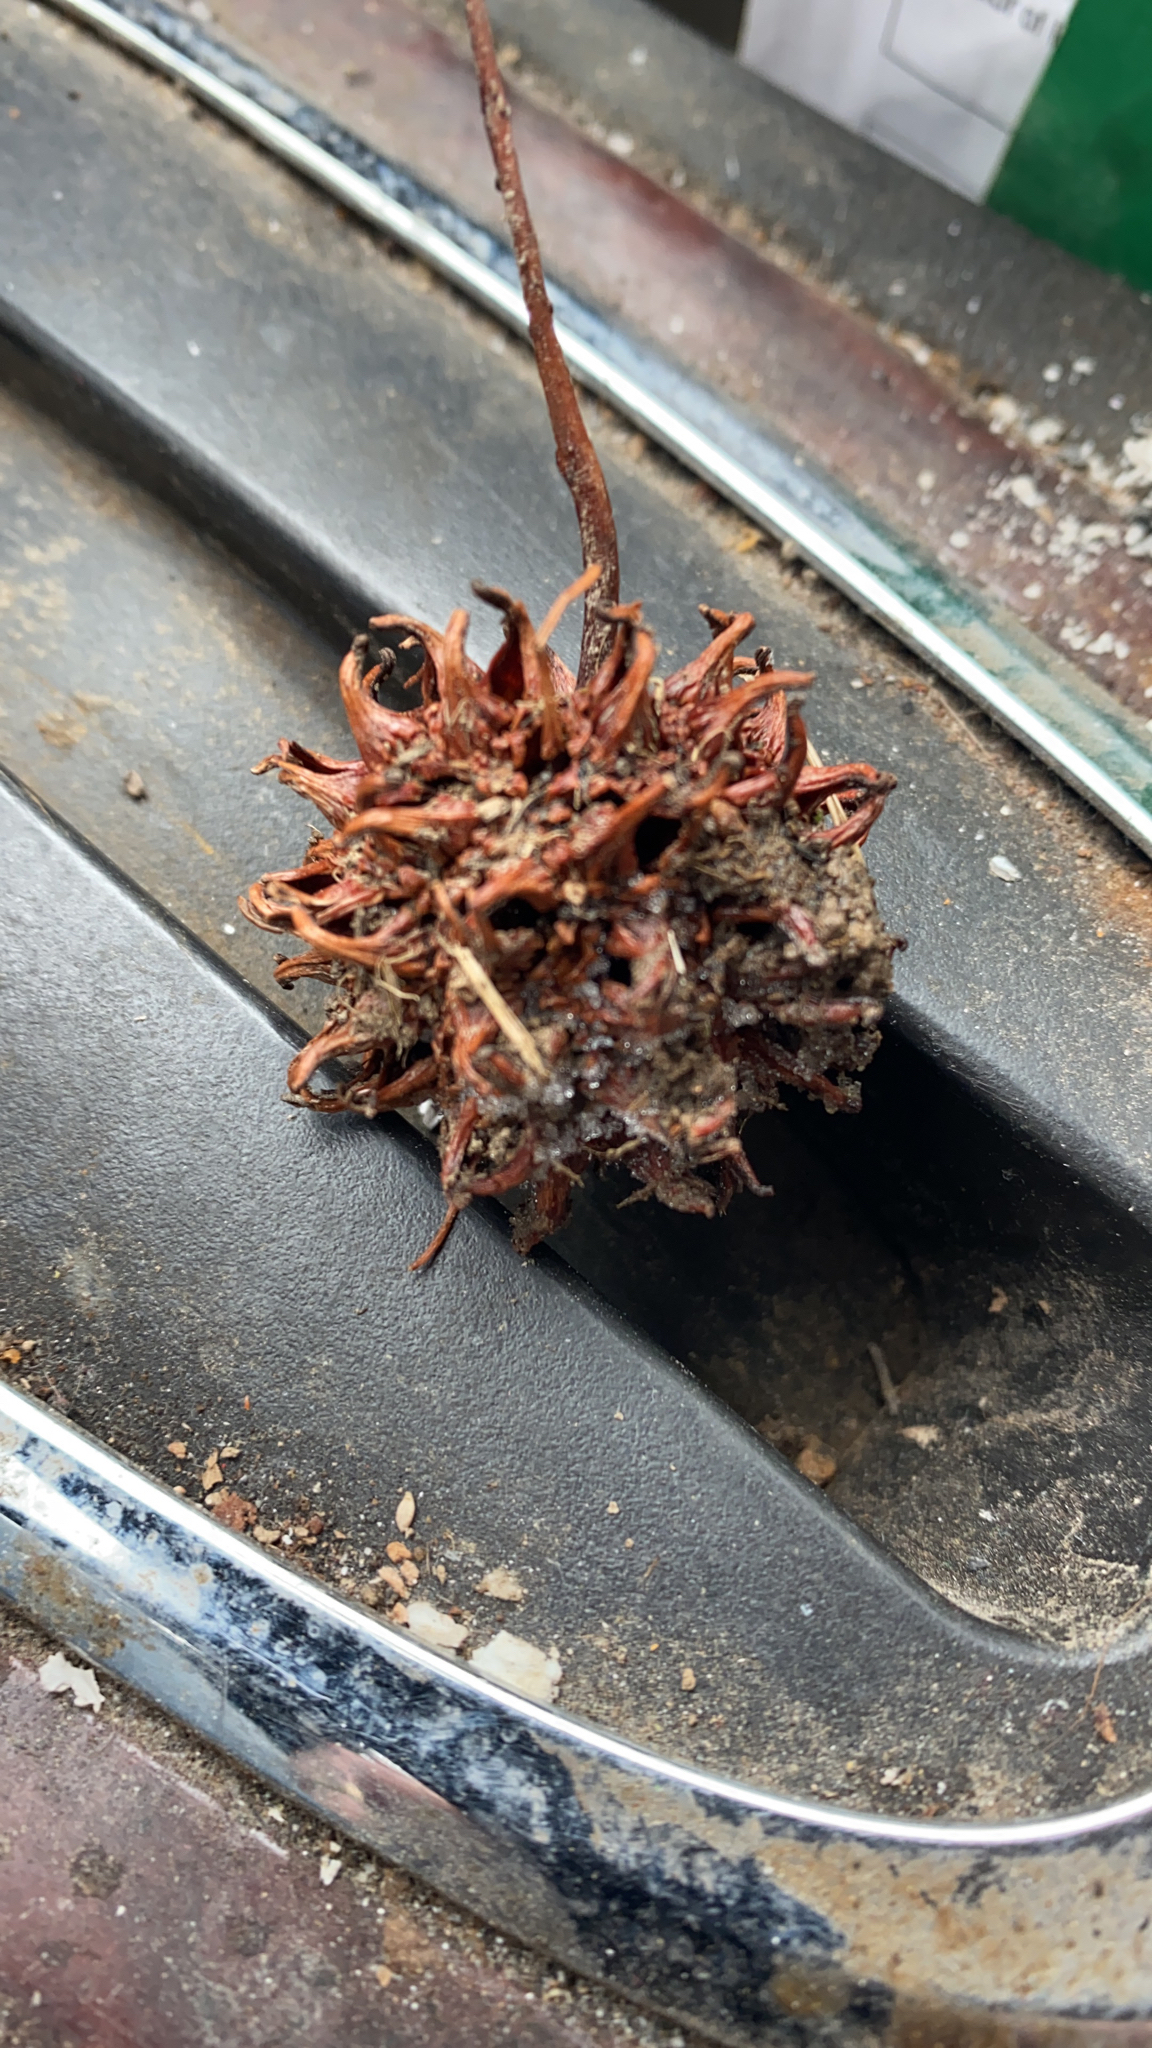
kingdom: Plantae
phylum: Tracheophyta
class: Magnoliopsida
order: Saxifragales
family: Altingiaceae
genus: Liquidambar
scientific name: Liquidambar styraciflua
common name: Sweet gum
